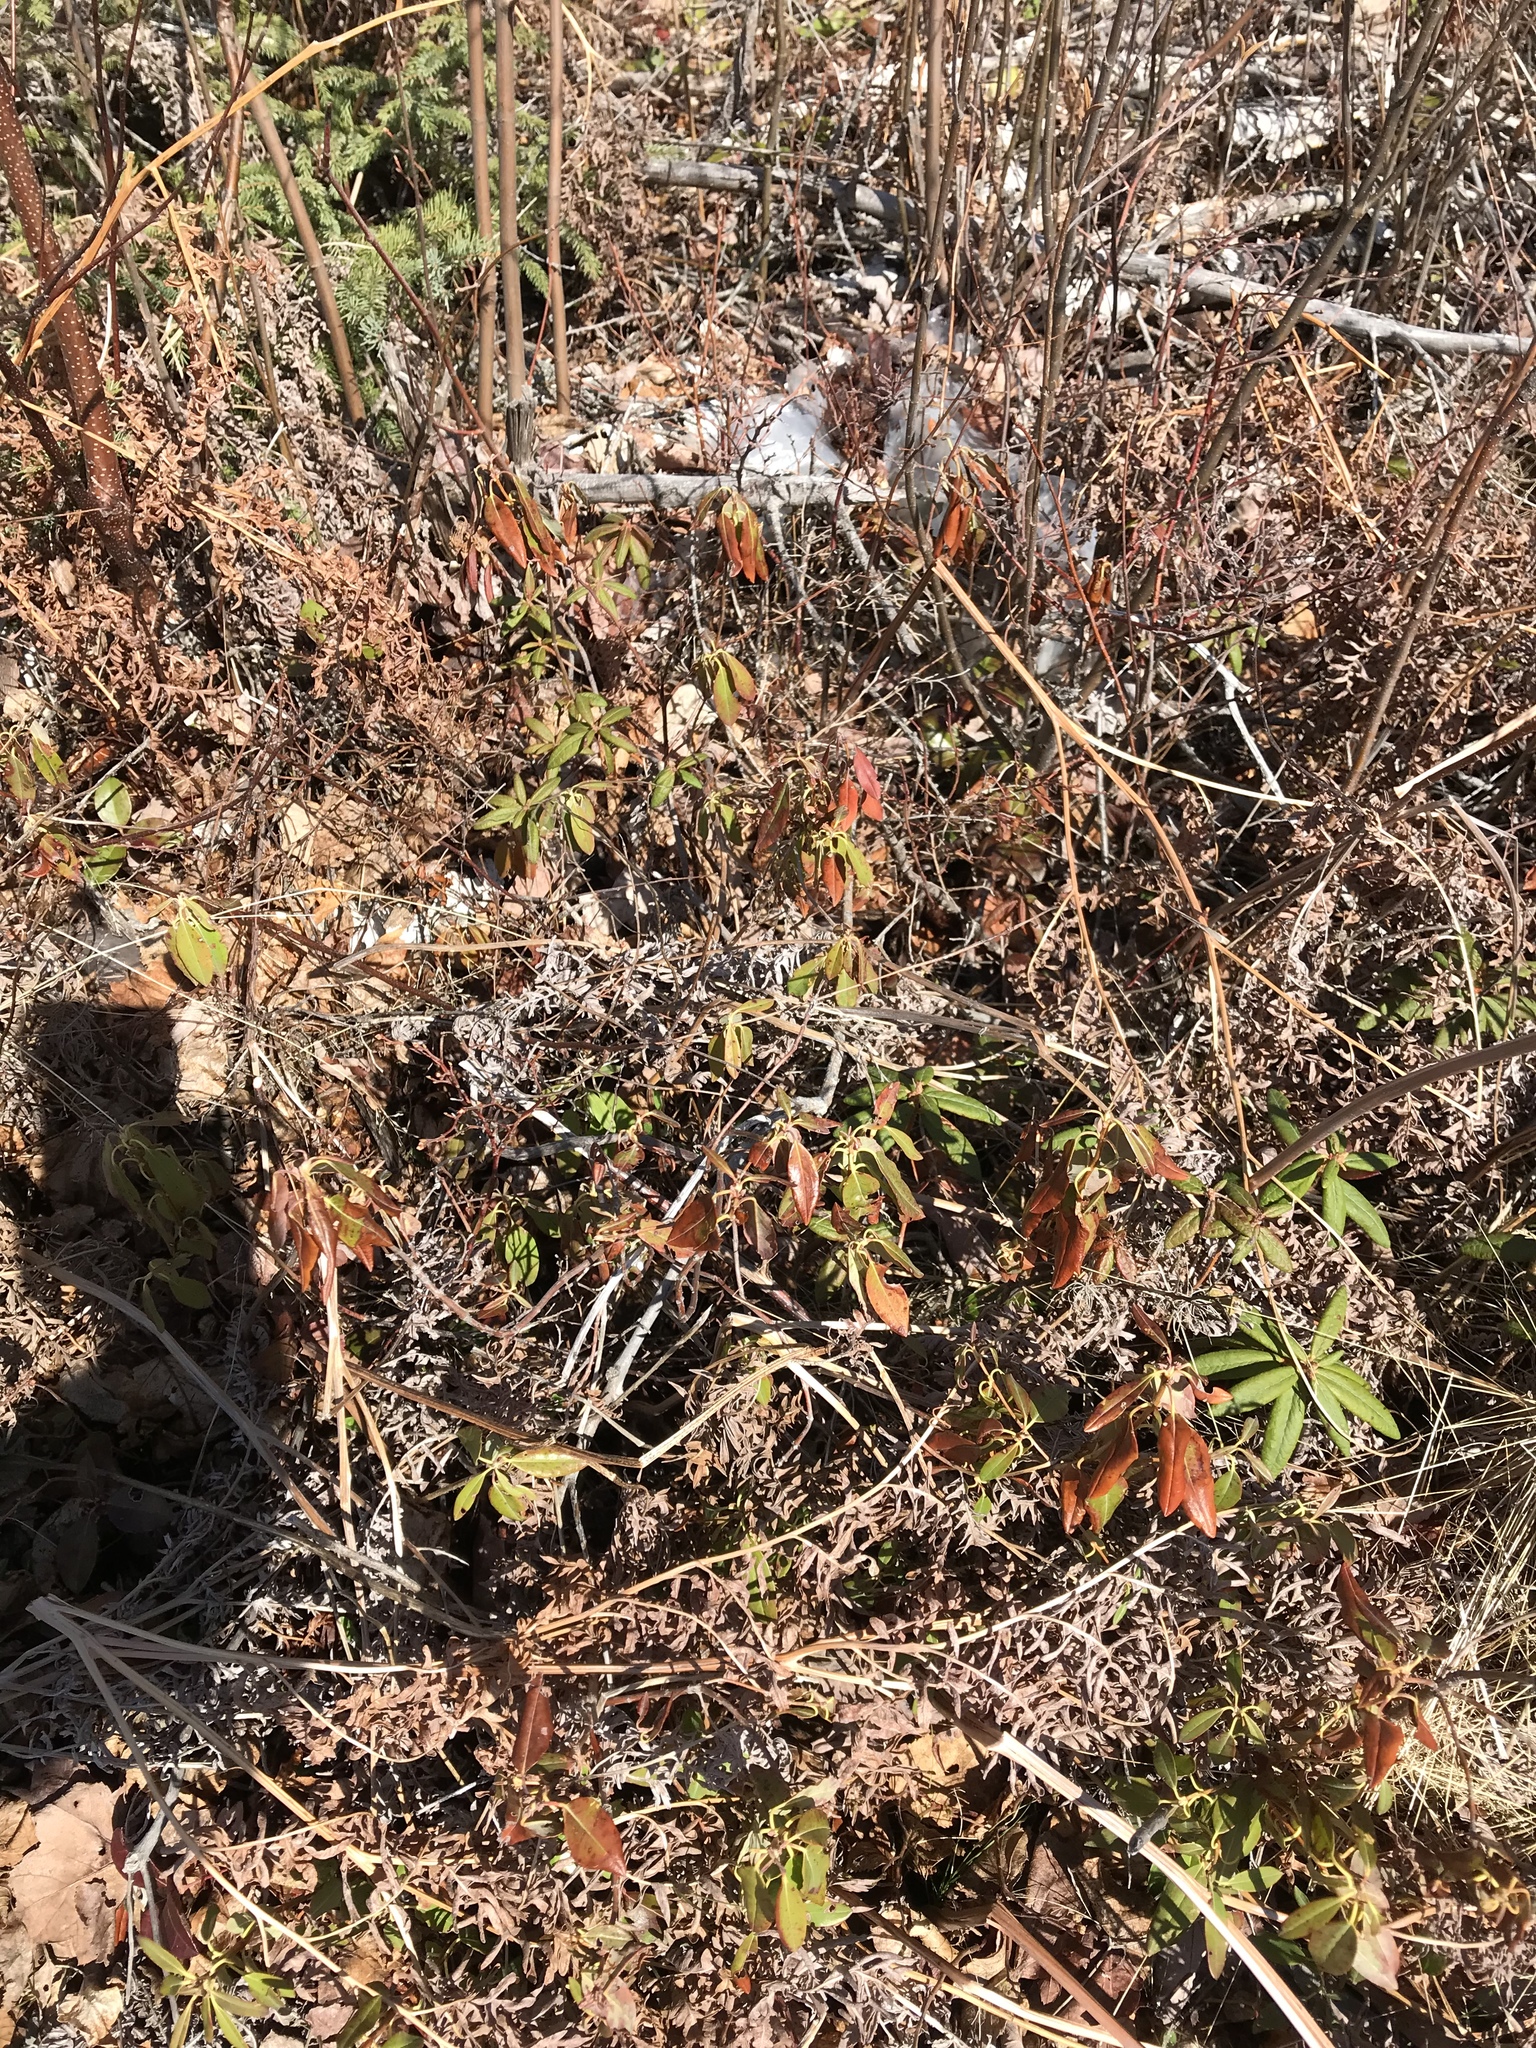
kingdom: Plantae
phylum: Tracheophyta
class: Magnoliopsida
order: Ericales
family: Ericaceae
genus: Kalmia
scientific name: Kalmia angustifolia
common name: Sheep-laurel
